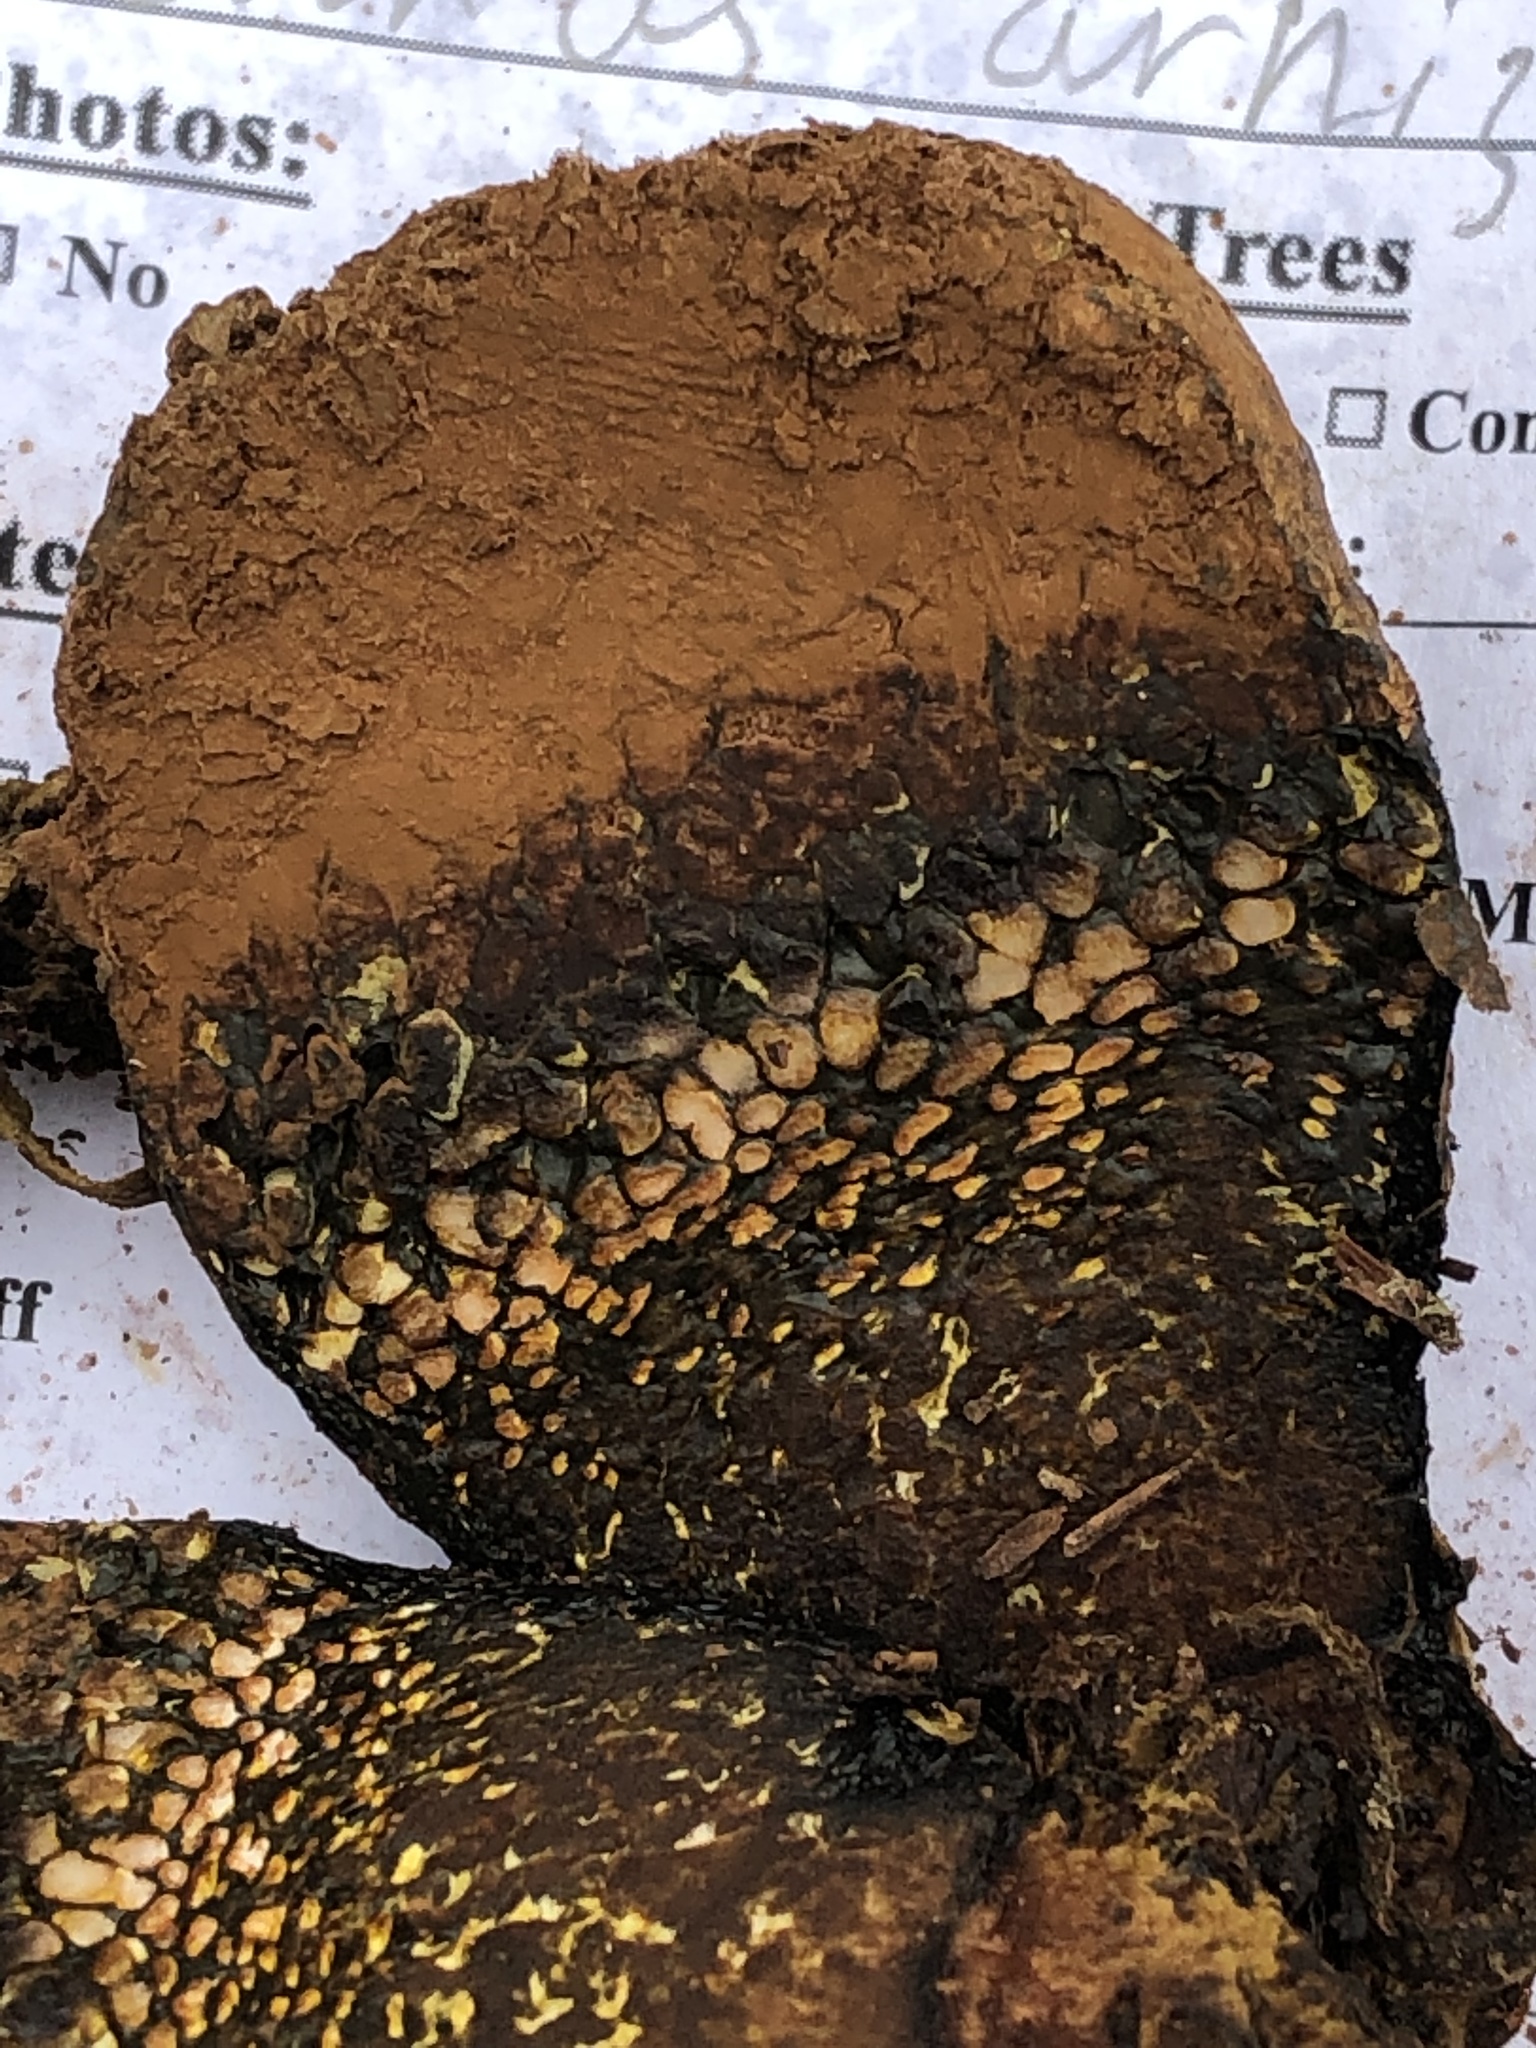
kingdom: Fungi
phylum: Basidiomycota
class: Agaricomycetes
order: Boletales
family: Sclerodermataceae
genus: Pisolithus
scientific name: Pisolithus arhizus
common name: Dyeball
